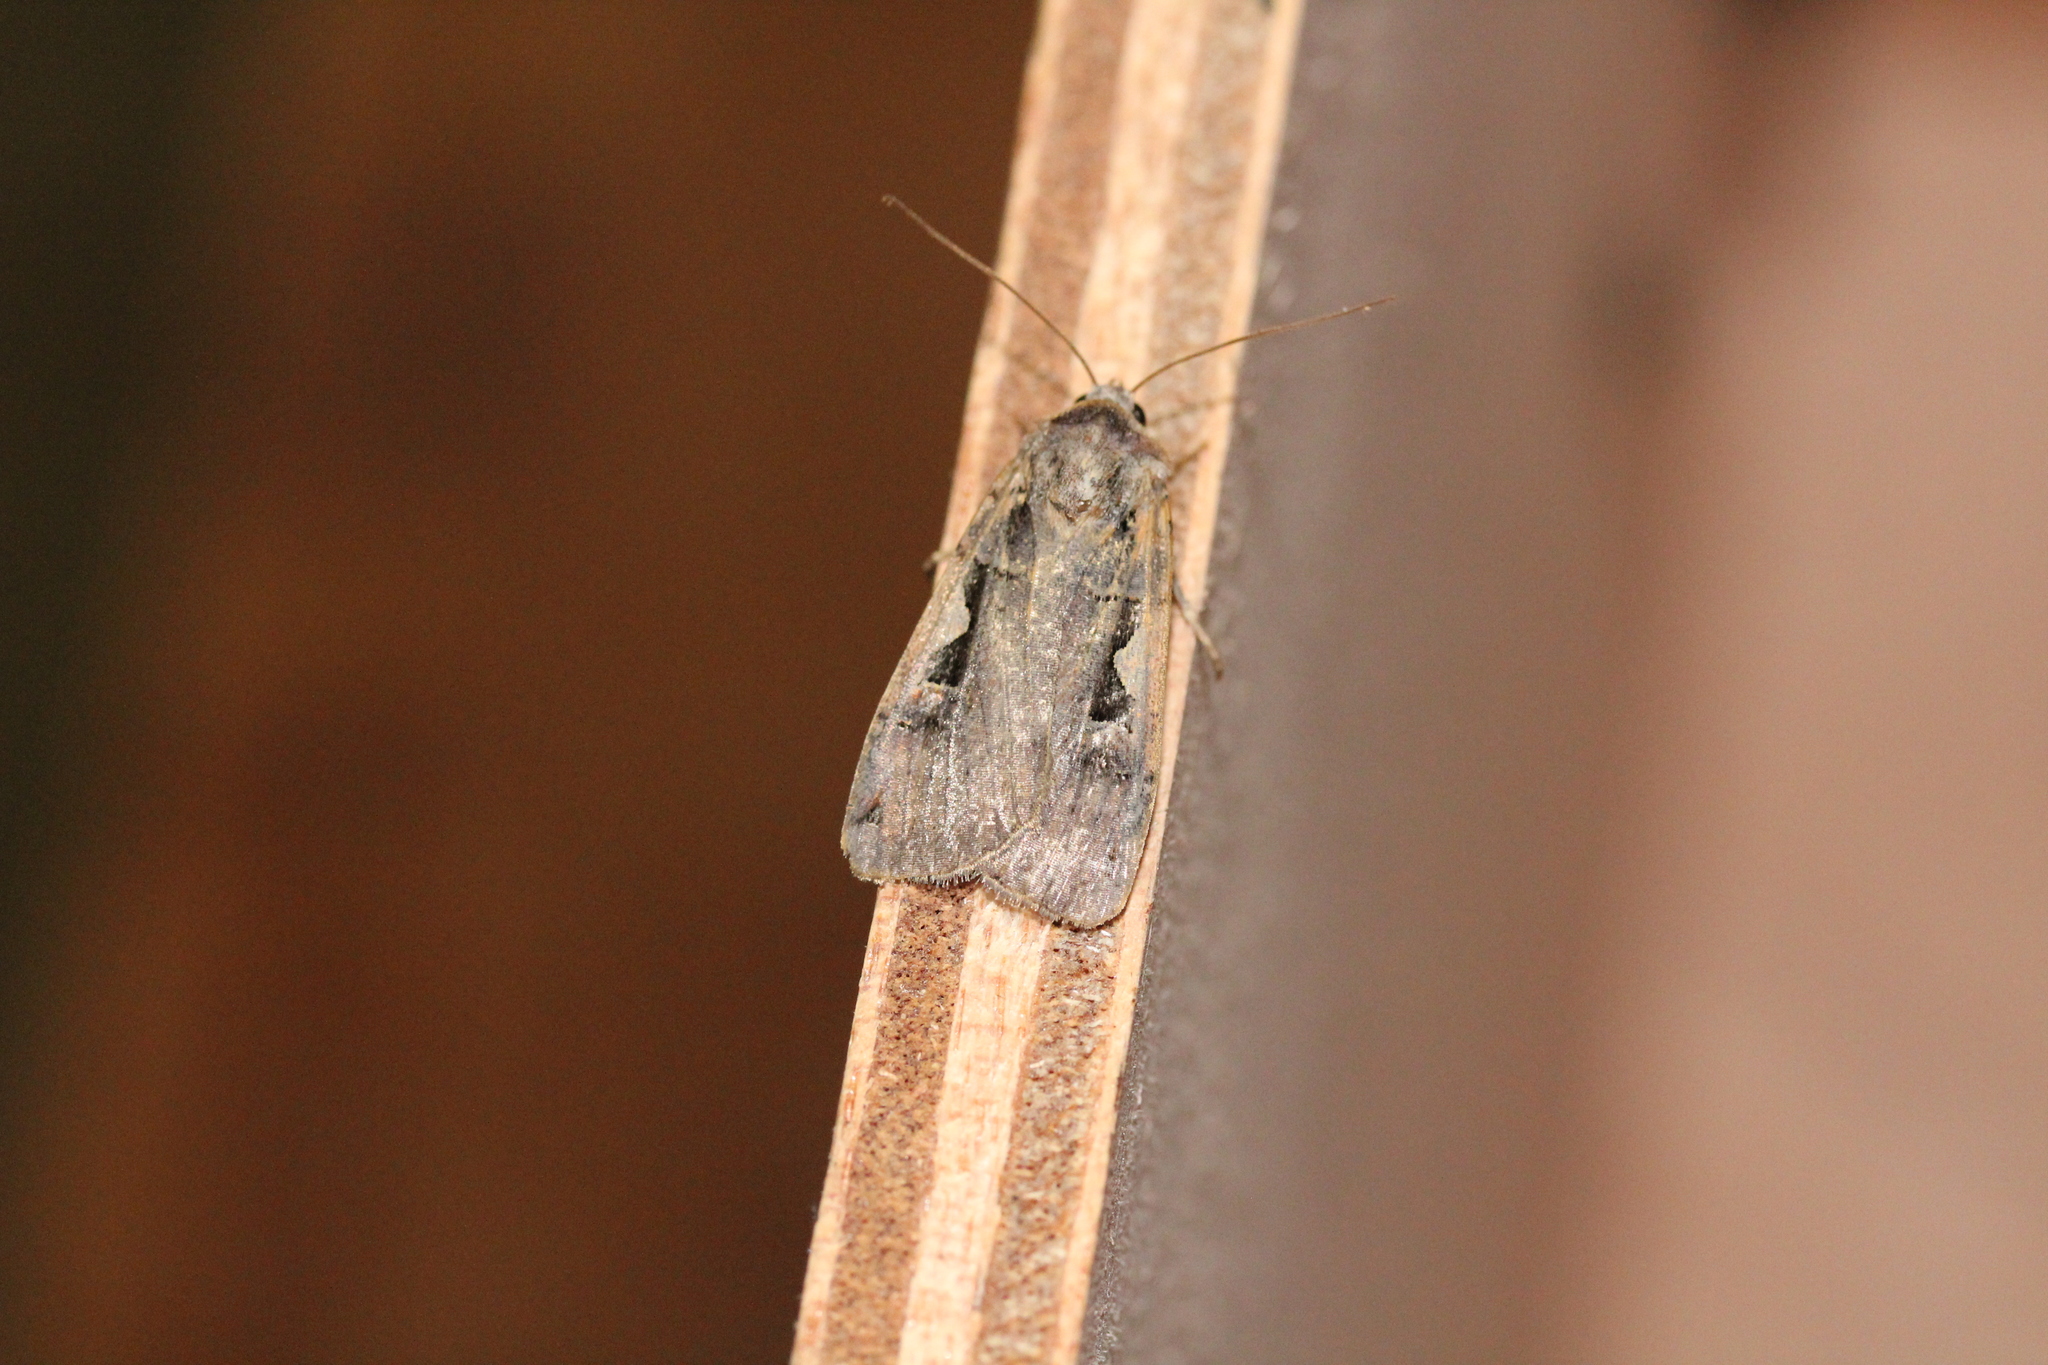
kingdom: Animalia
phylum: Arthropoda
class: Insecta
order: Lepidoptera
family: Noctuidae
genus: Xestia
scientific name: Xestia c-nigrum
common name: Setaceous hebrew character
